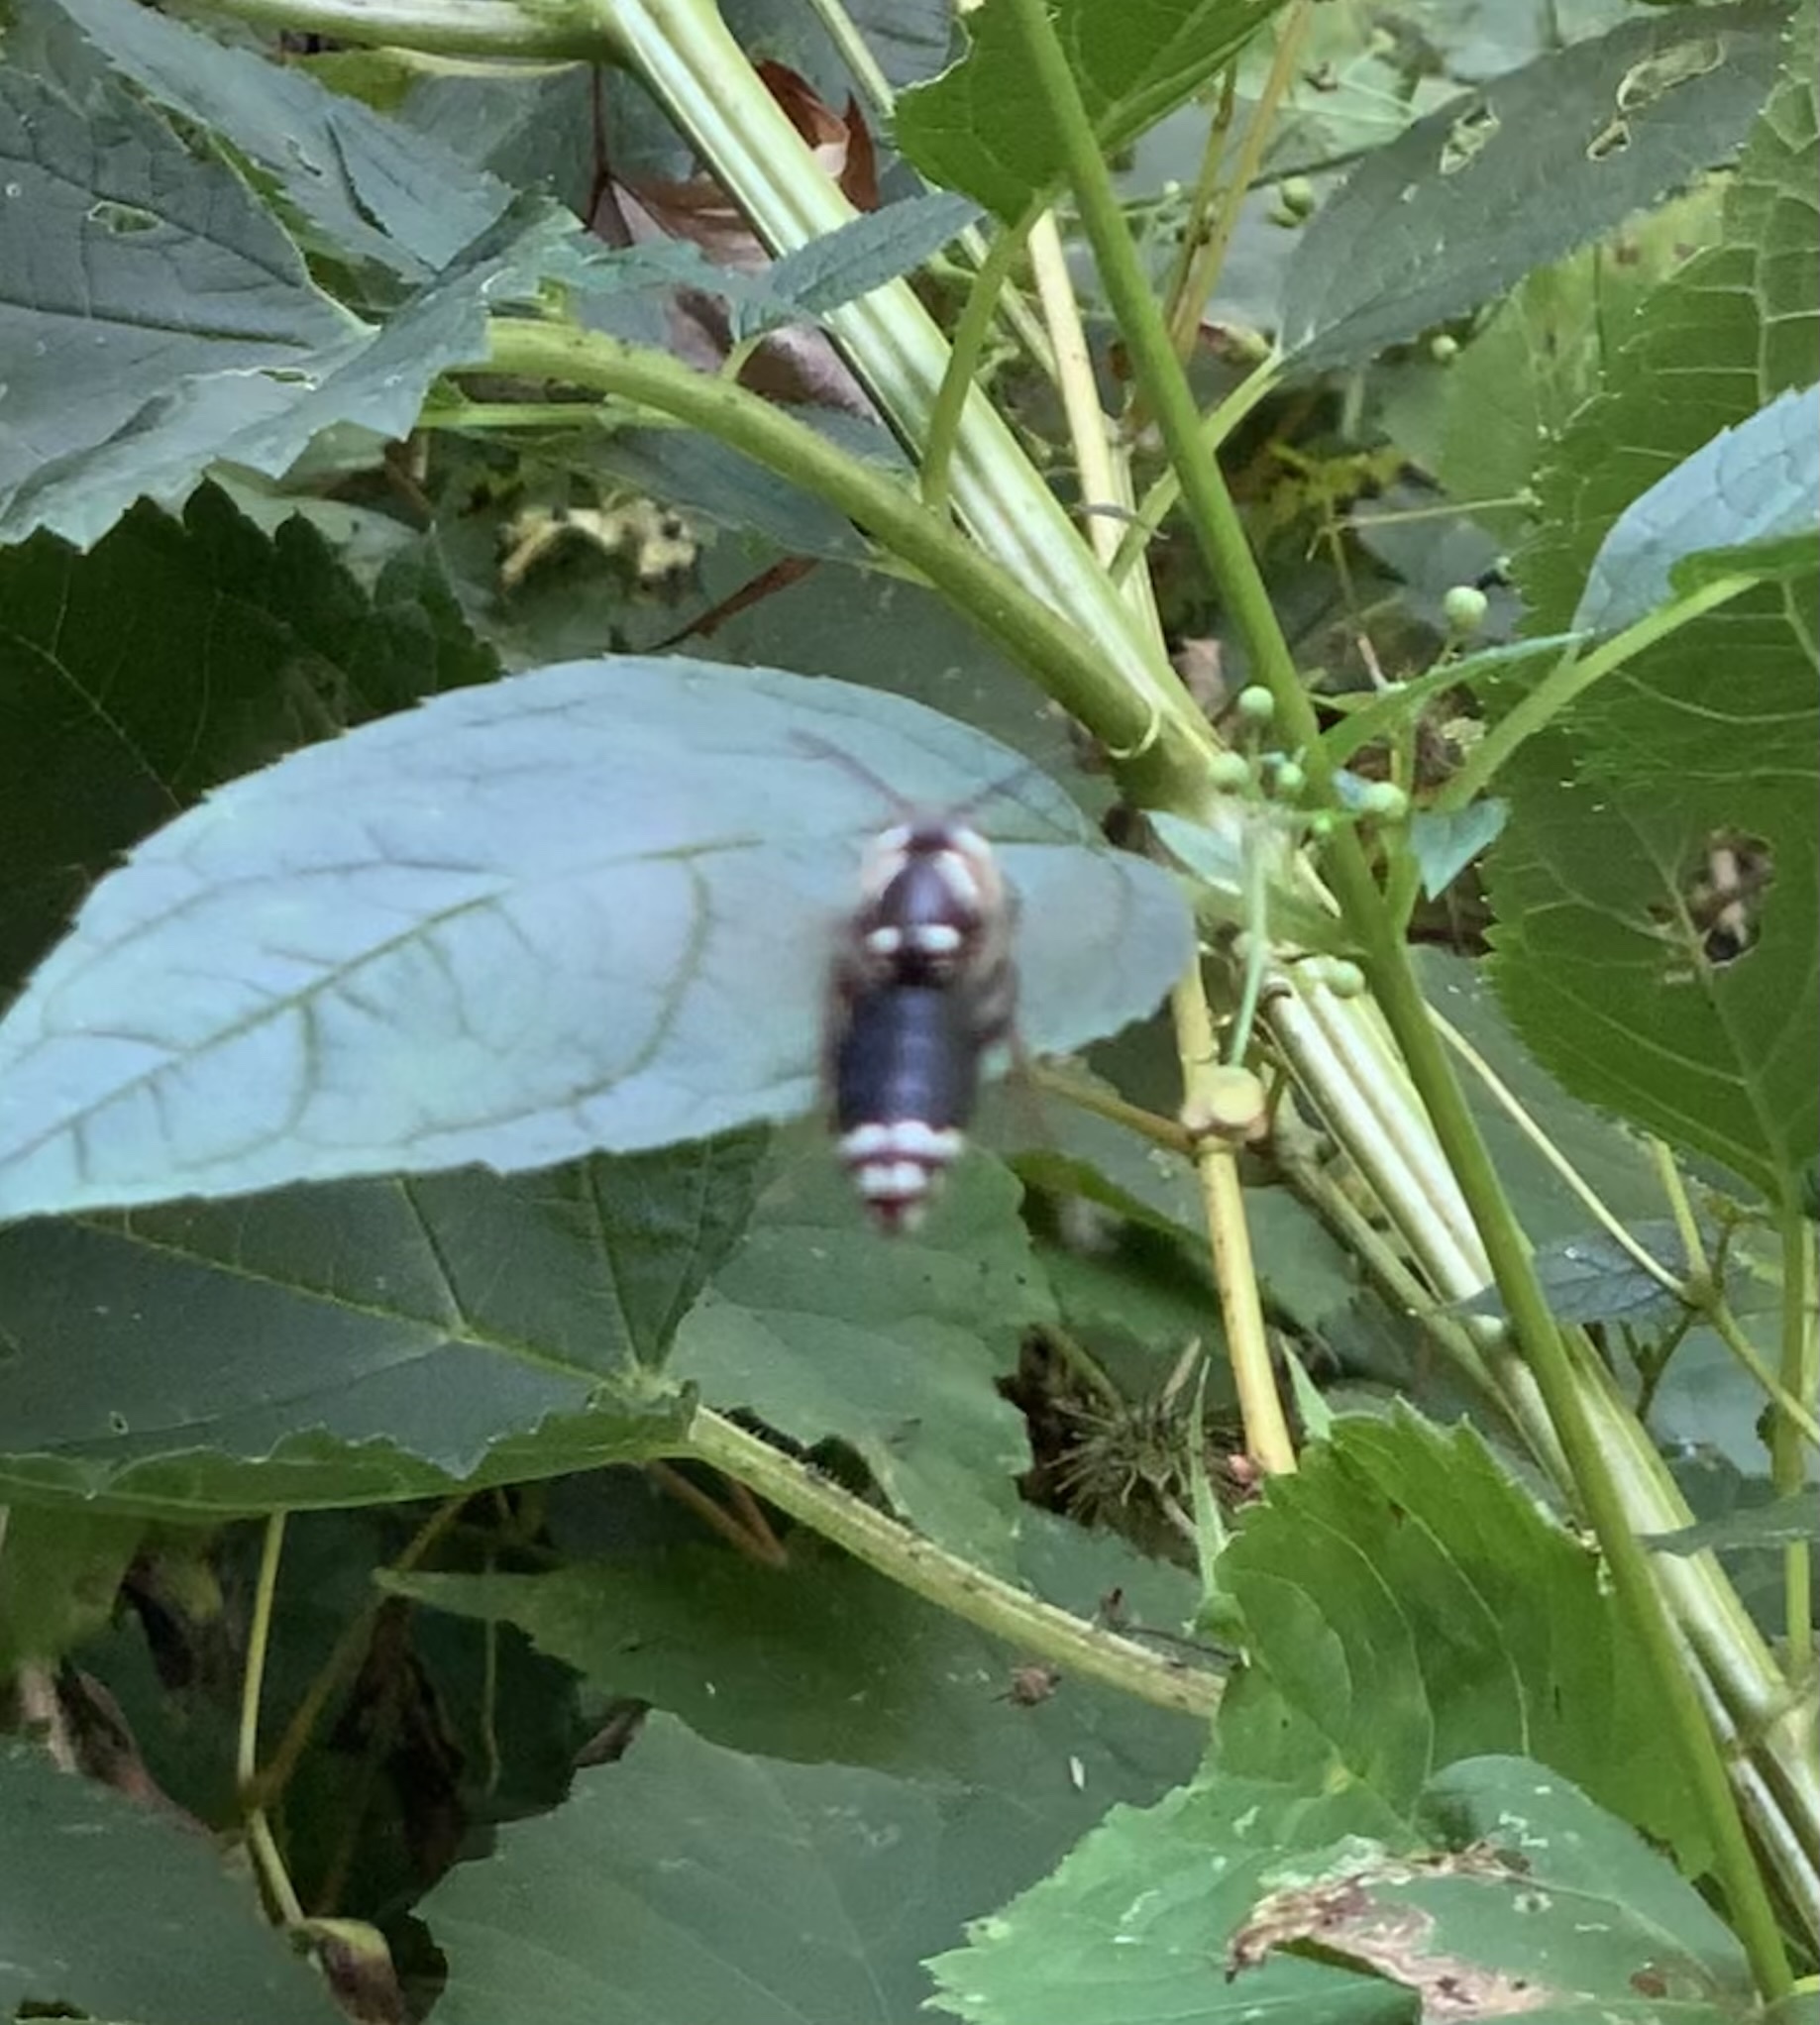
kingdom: Animalia
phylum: Arthropoda
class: Insecta
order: Hymenoptera
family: Vespidae
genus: Dolichovespula
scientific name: Dolichovespula maculata
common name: Bald-faced hornet
